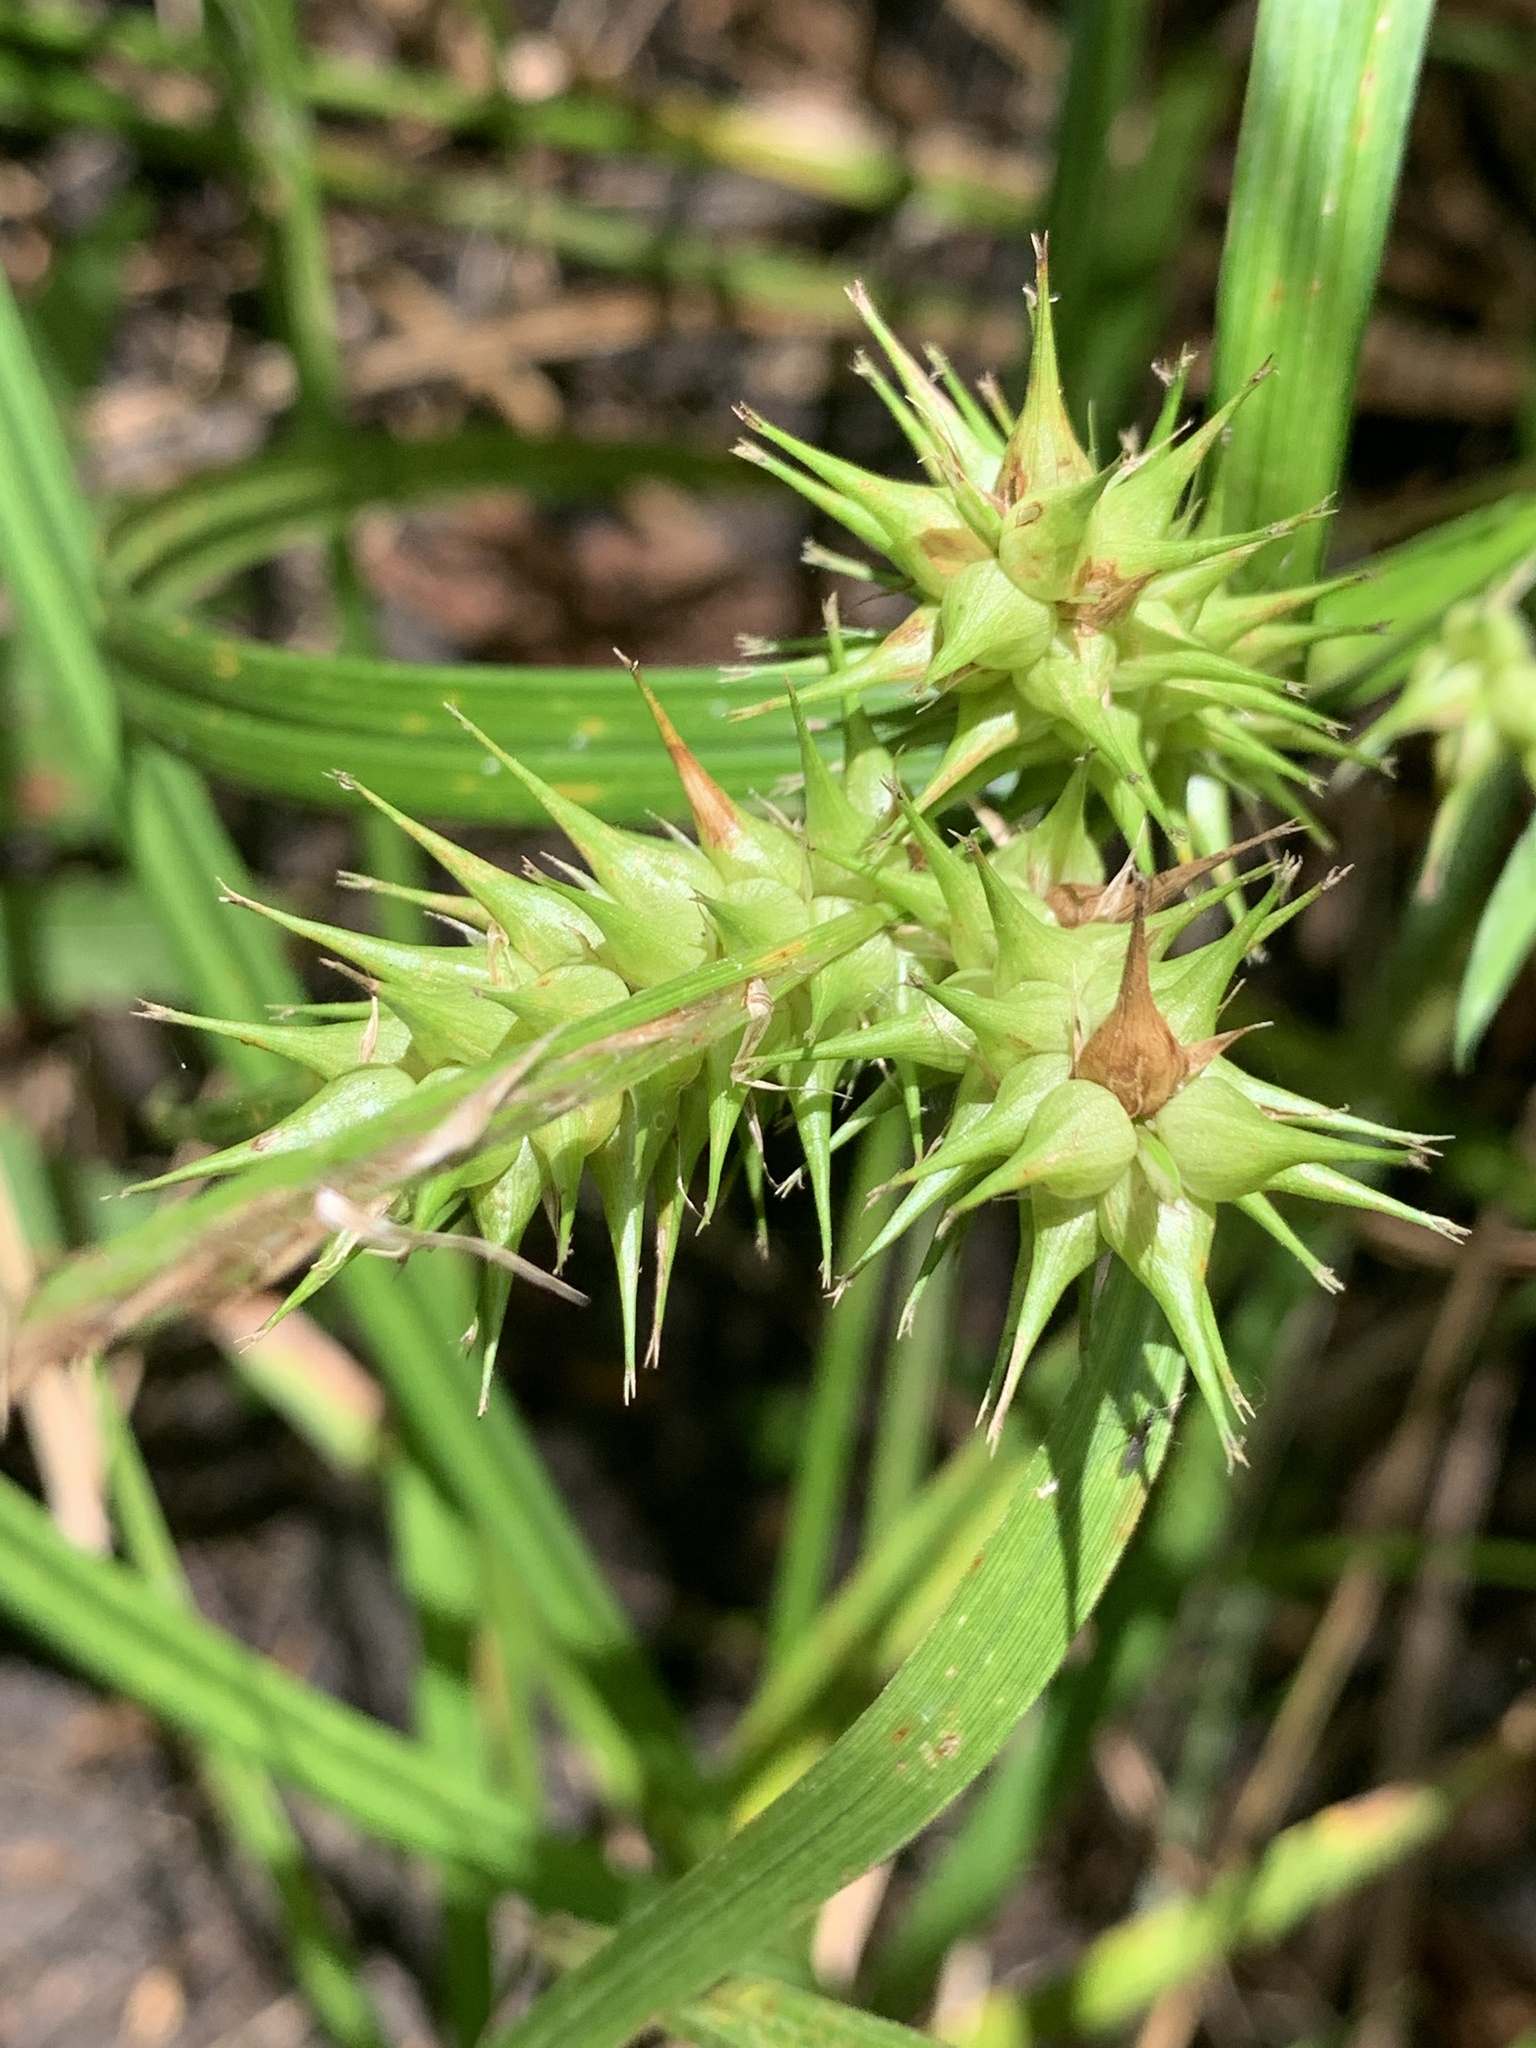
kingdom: Plantae
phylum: Tracheophyta
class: Liliopsida
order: Poales
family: Cyperaceae
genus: Carex
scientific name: Carex lupulina
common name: Hop sedge
